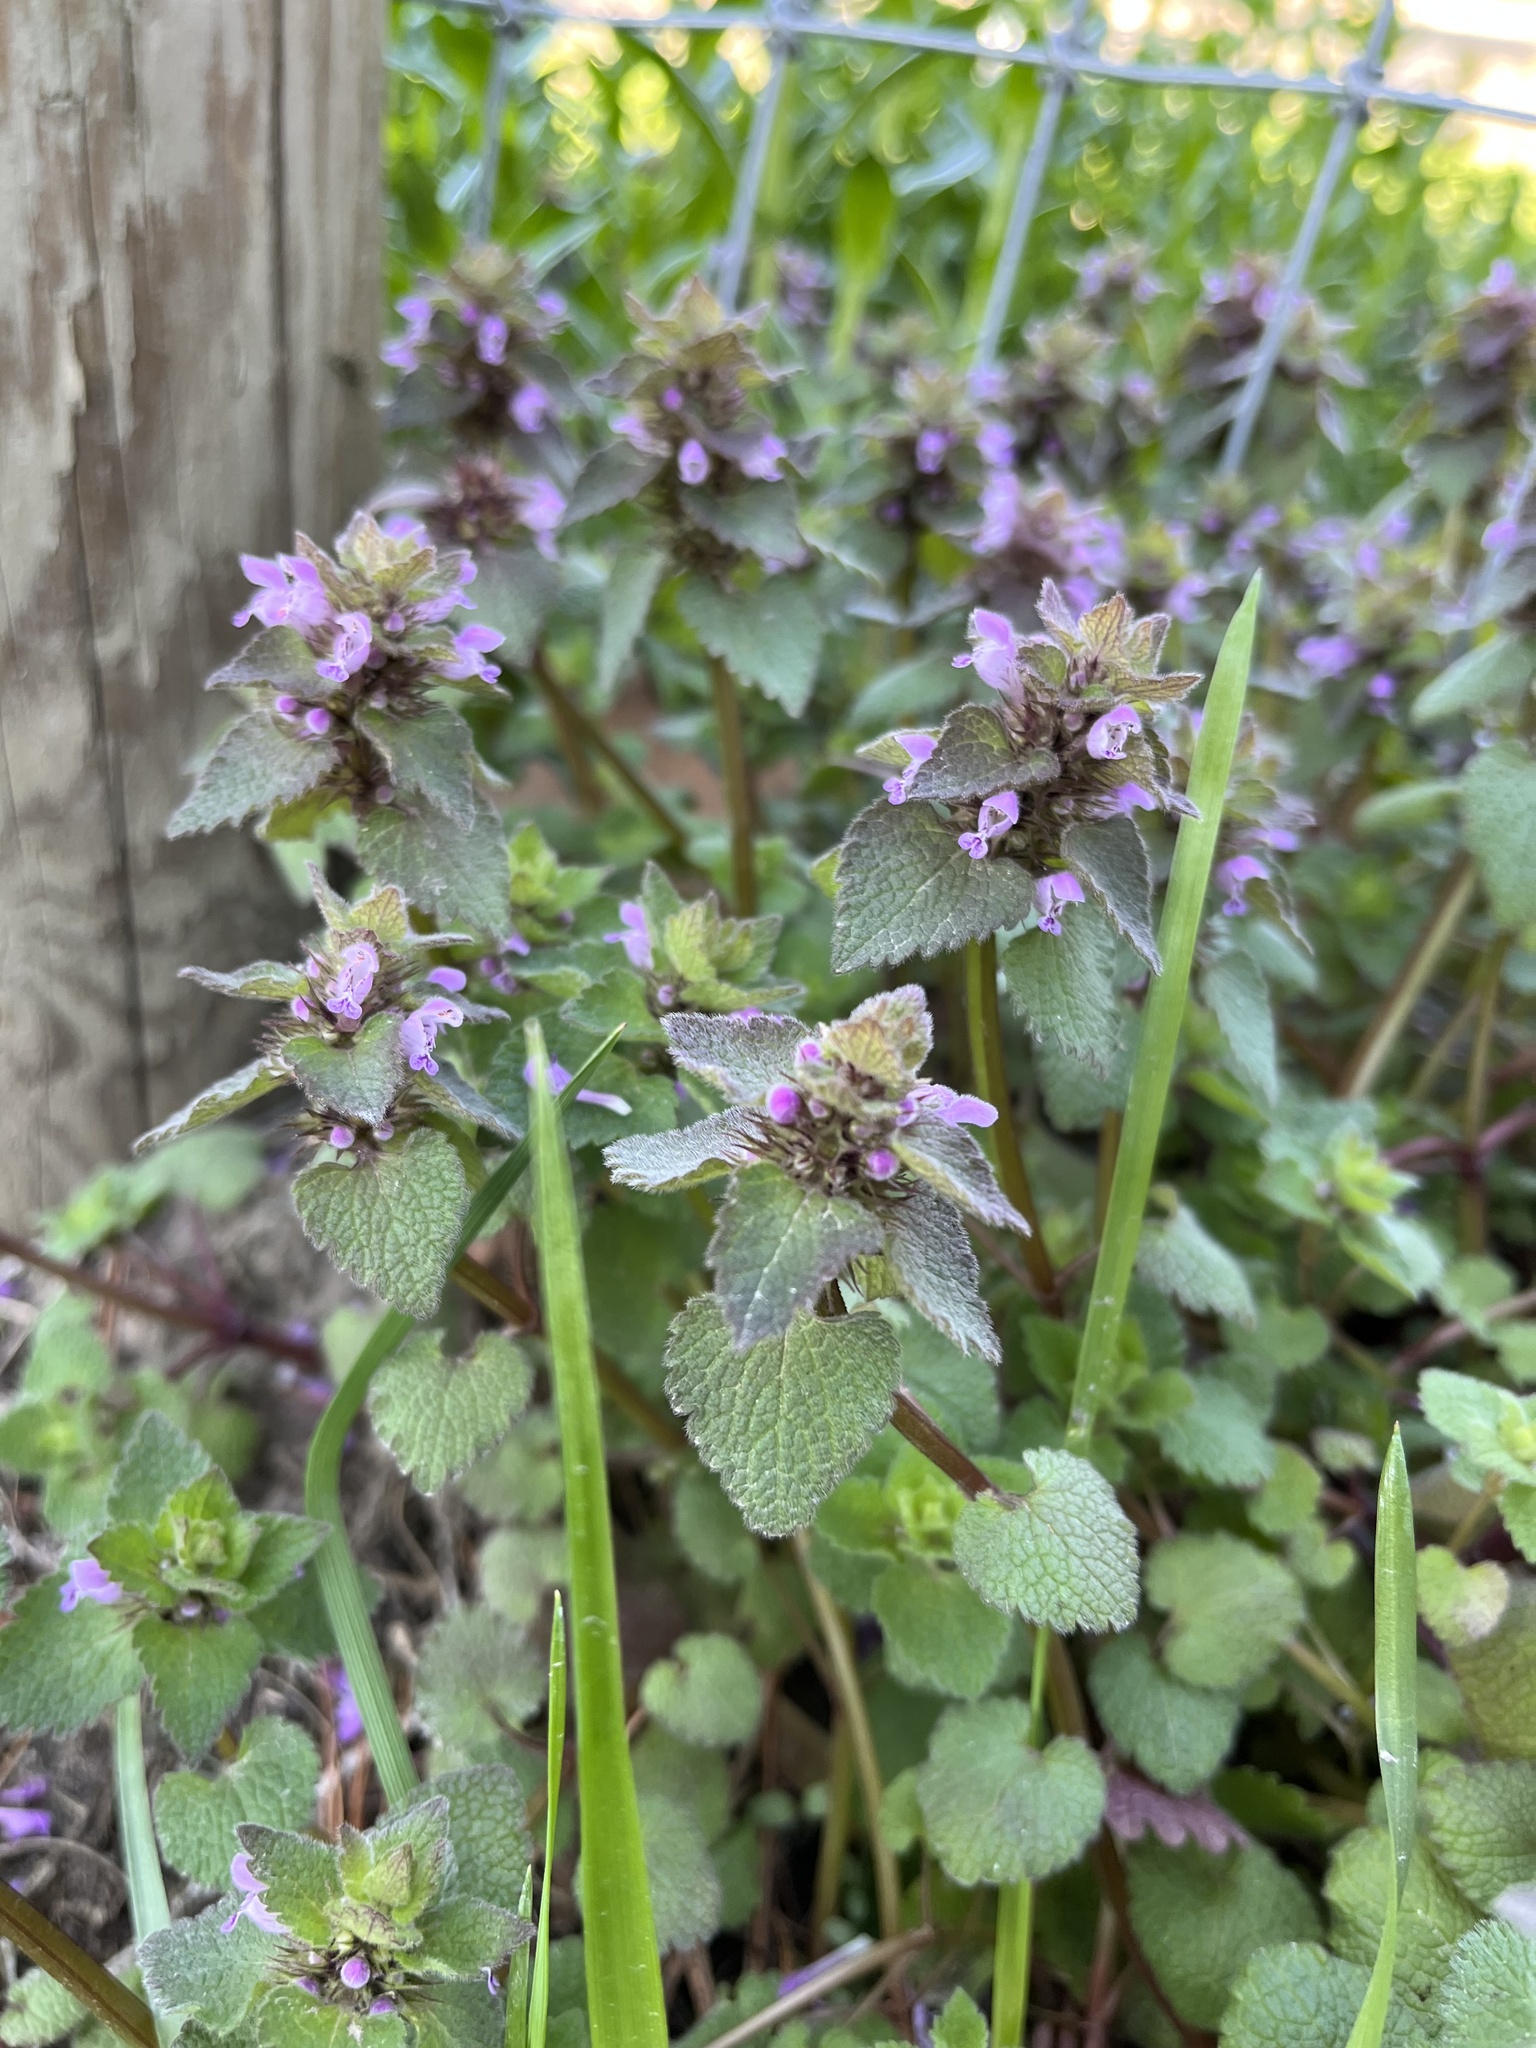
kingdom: Plantae
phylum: Tracheophyta
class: Magnoliopsida
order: Lamiales
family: Lamiaceae
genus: Lamium
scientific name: Lamium purpureum
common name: Red dead-nettle
